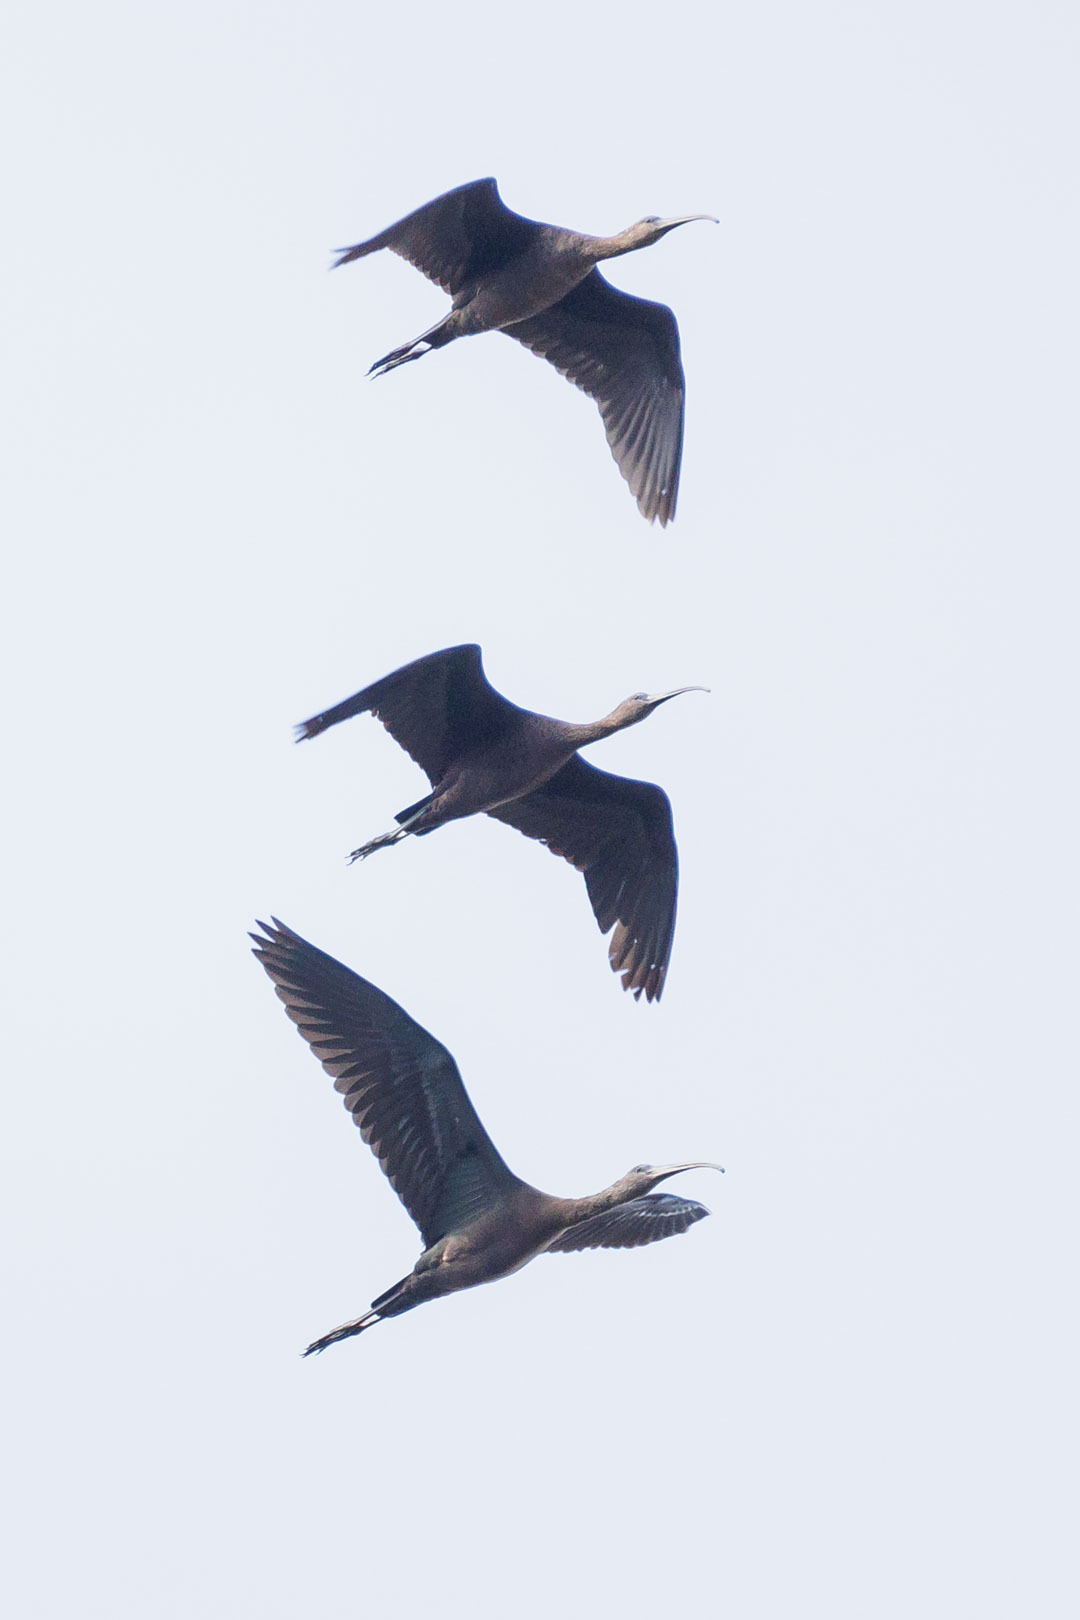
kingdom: Animalia
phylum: Chordata
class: Aves
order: Pelecaniformes
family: Threskiornithidae
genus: Plegadis
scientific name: Plegadis falcinellus
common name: Glossy ibis
